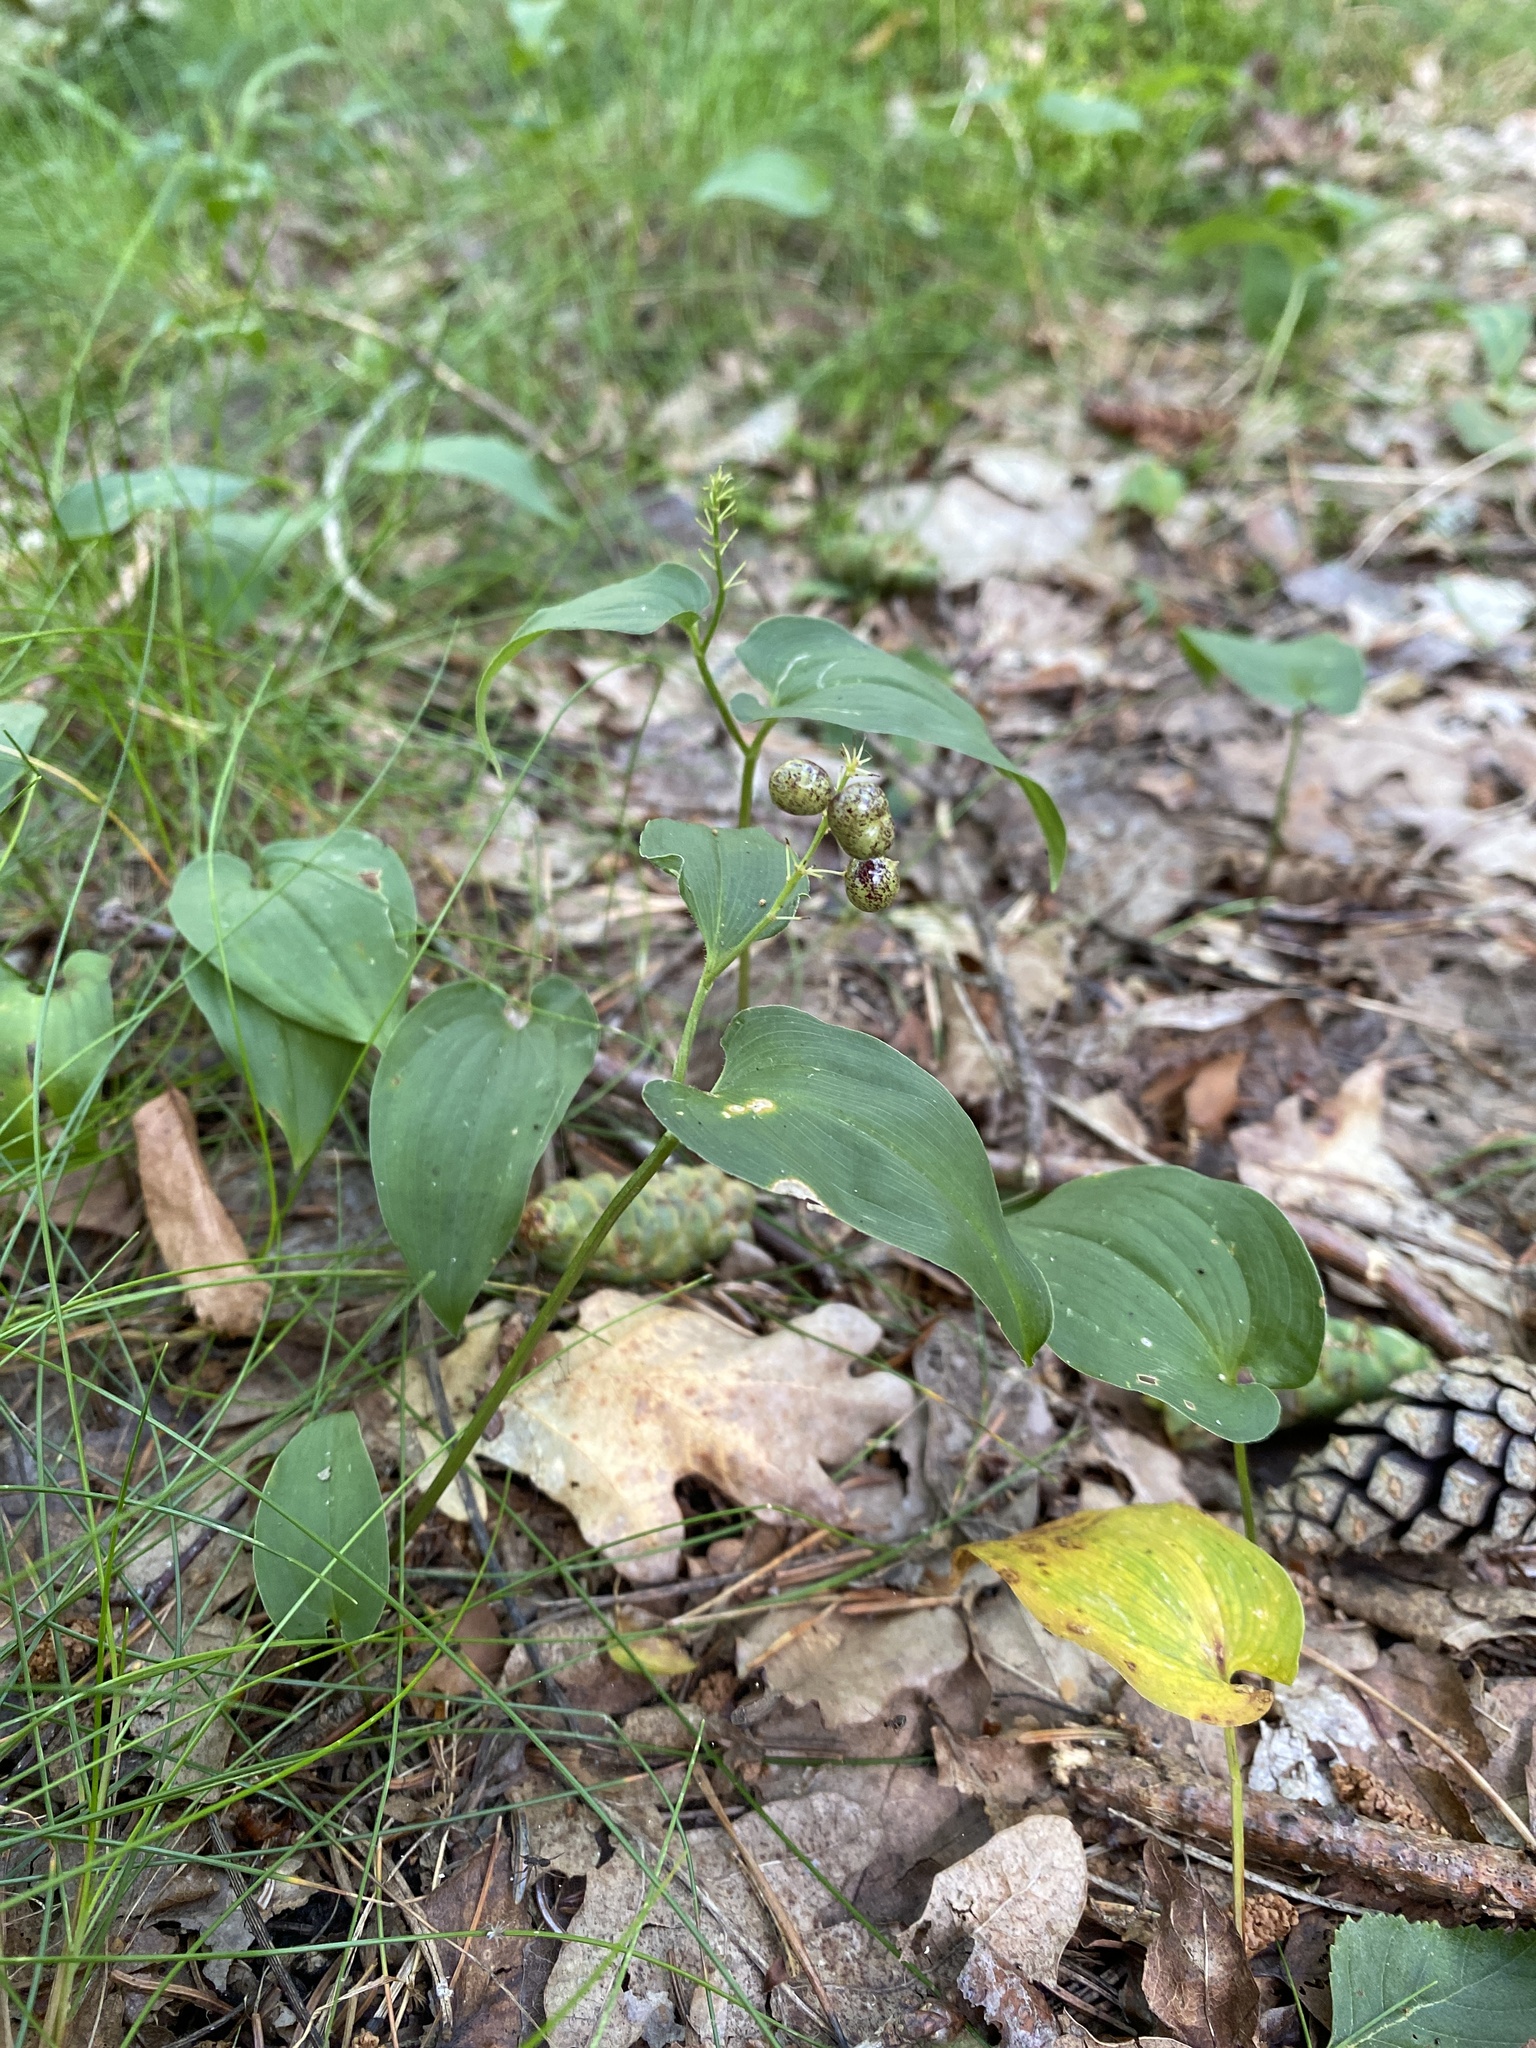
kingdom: Plantae
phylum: Tracheophyta
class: Liliopsida
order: Asparagales
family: Asparagaceae
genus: Maianthemum
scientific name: Maianthemum bifolium
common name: May lily
